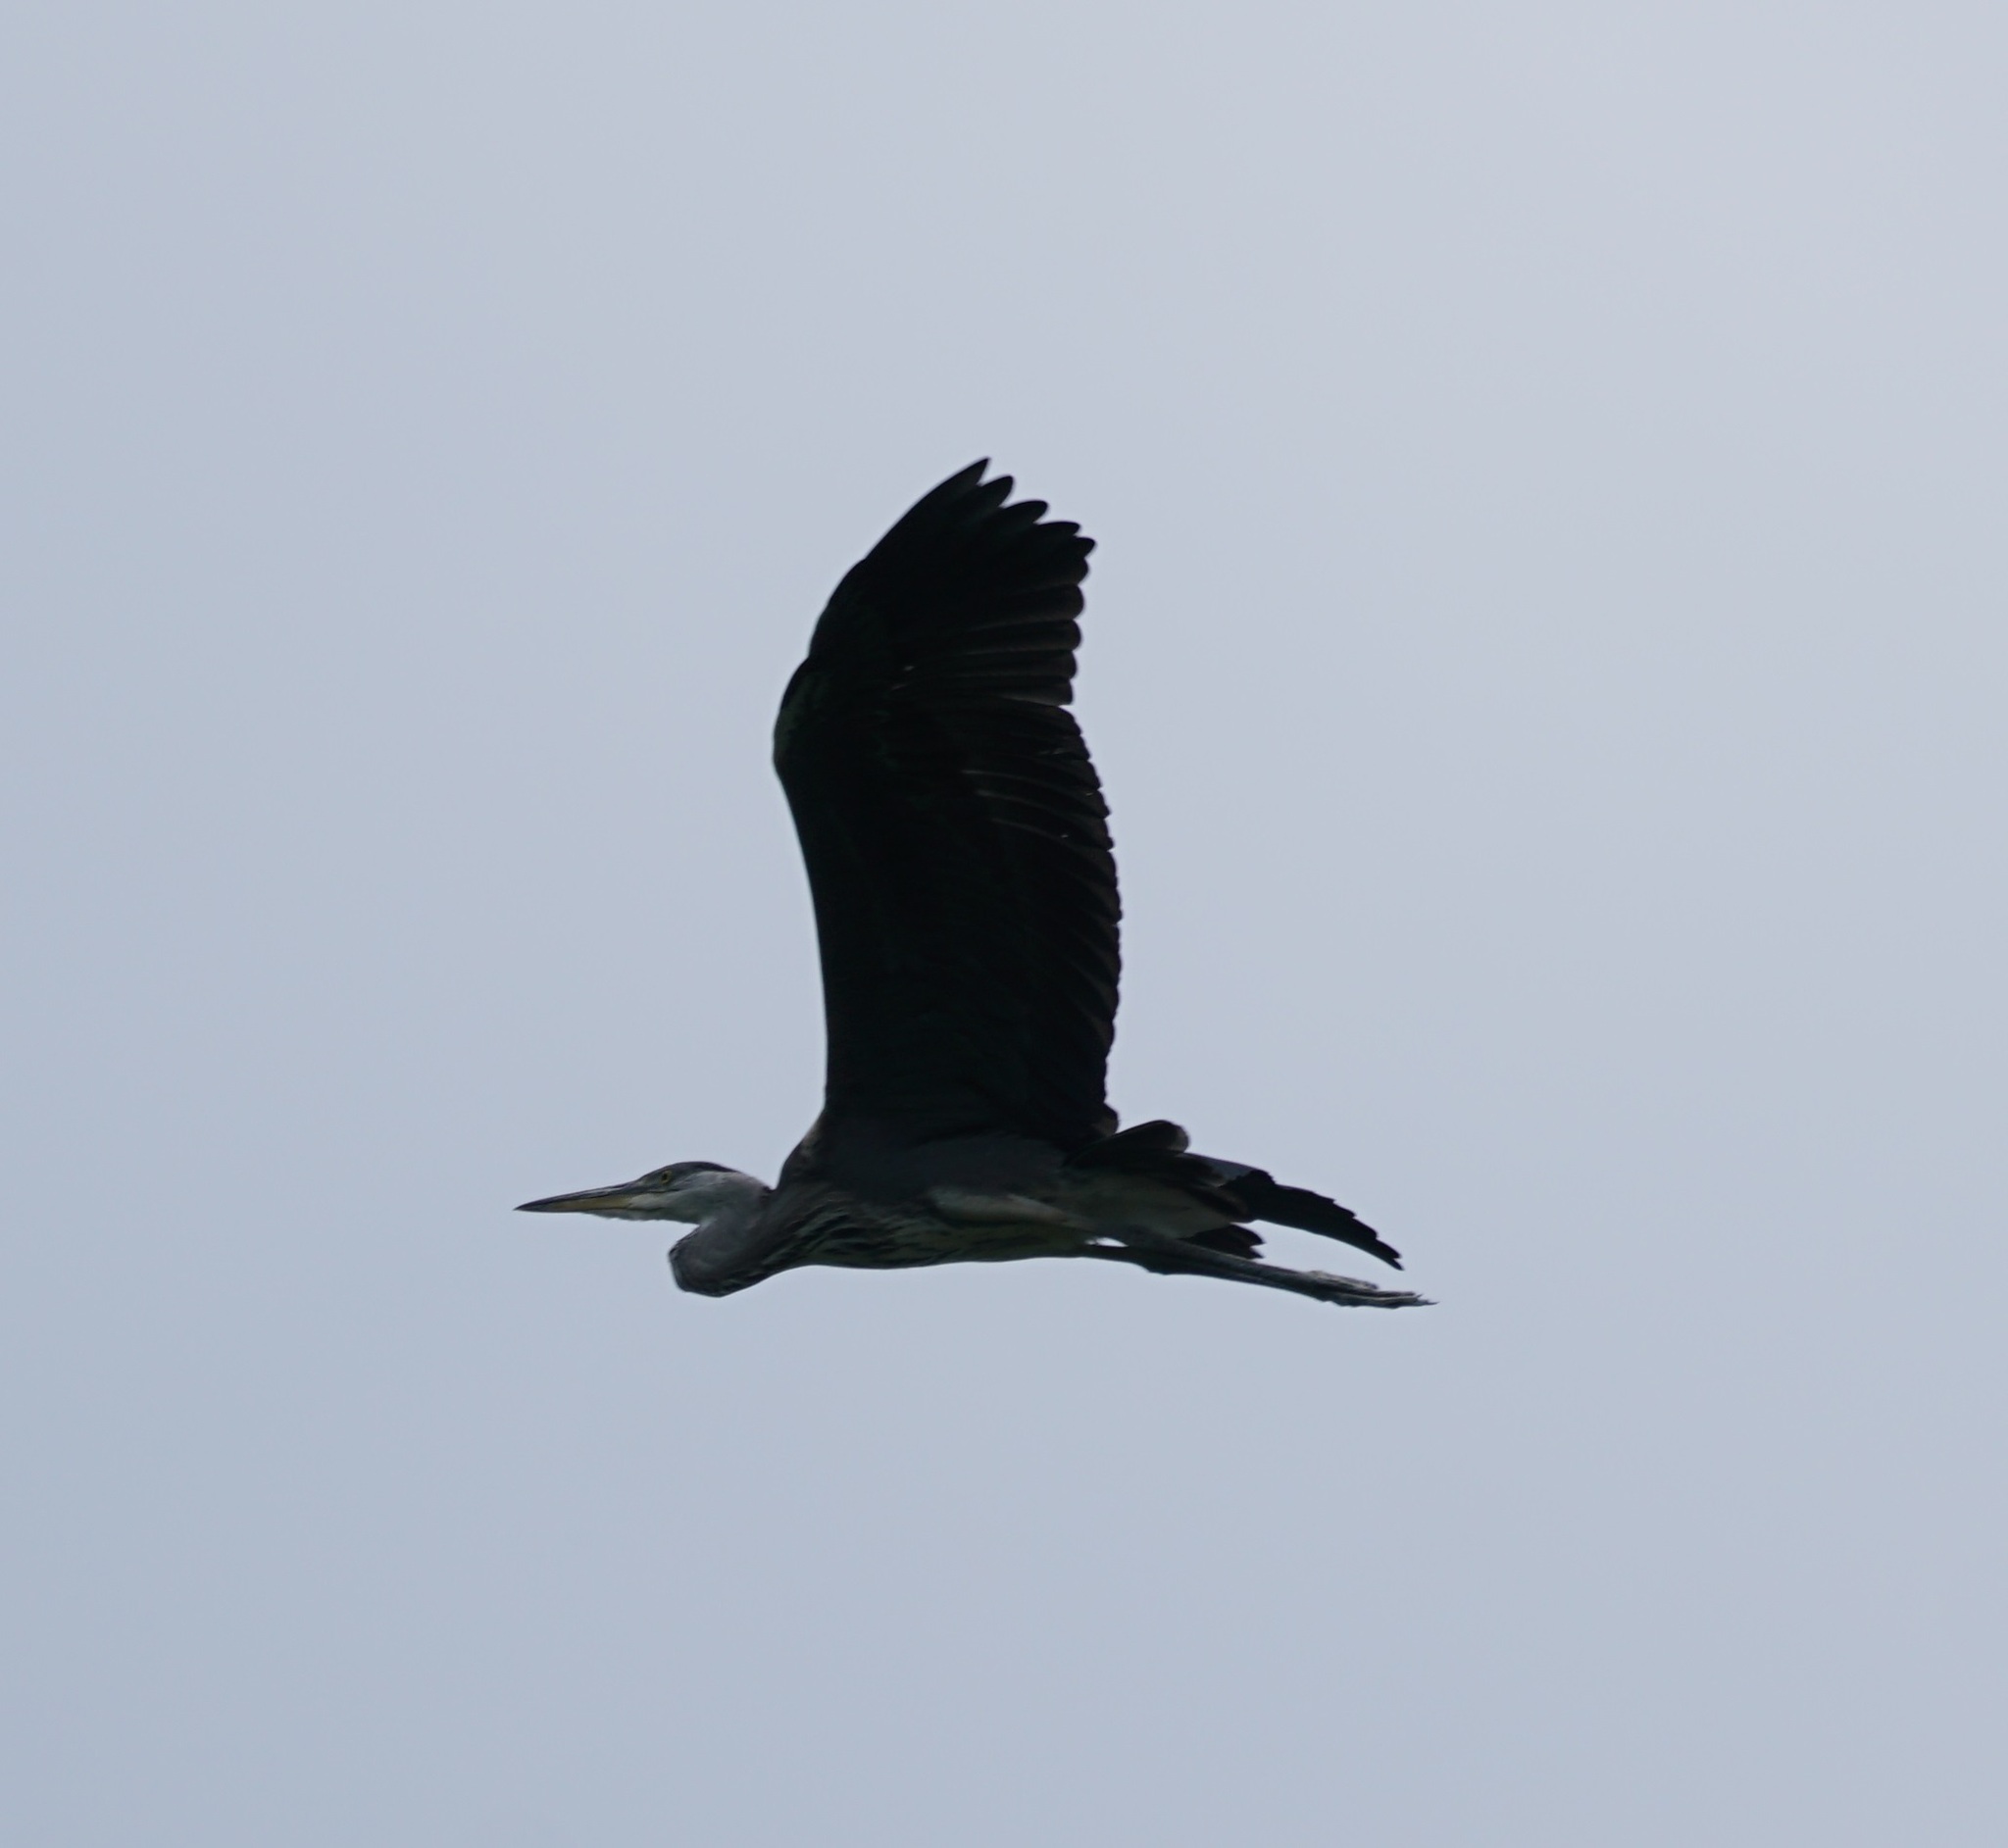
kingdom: Animalia
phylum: Chordata
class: Aves
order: Pelecaniformes
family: Ardeidae
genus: Ardea
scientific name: Ardea cinerea
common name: Grey heron
